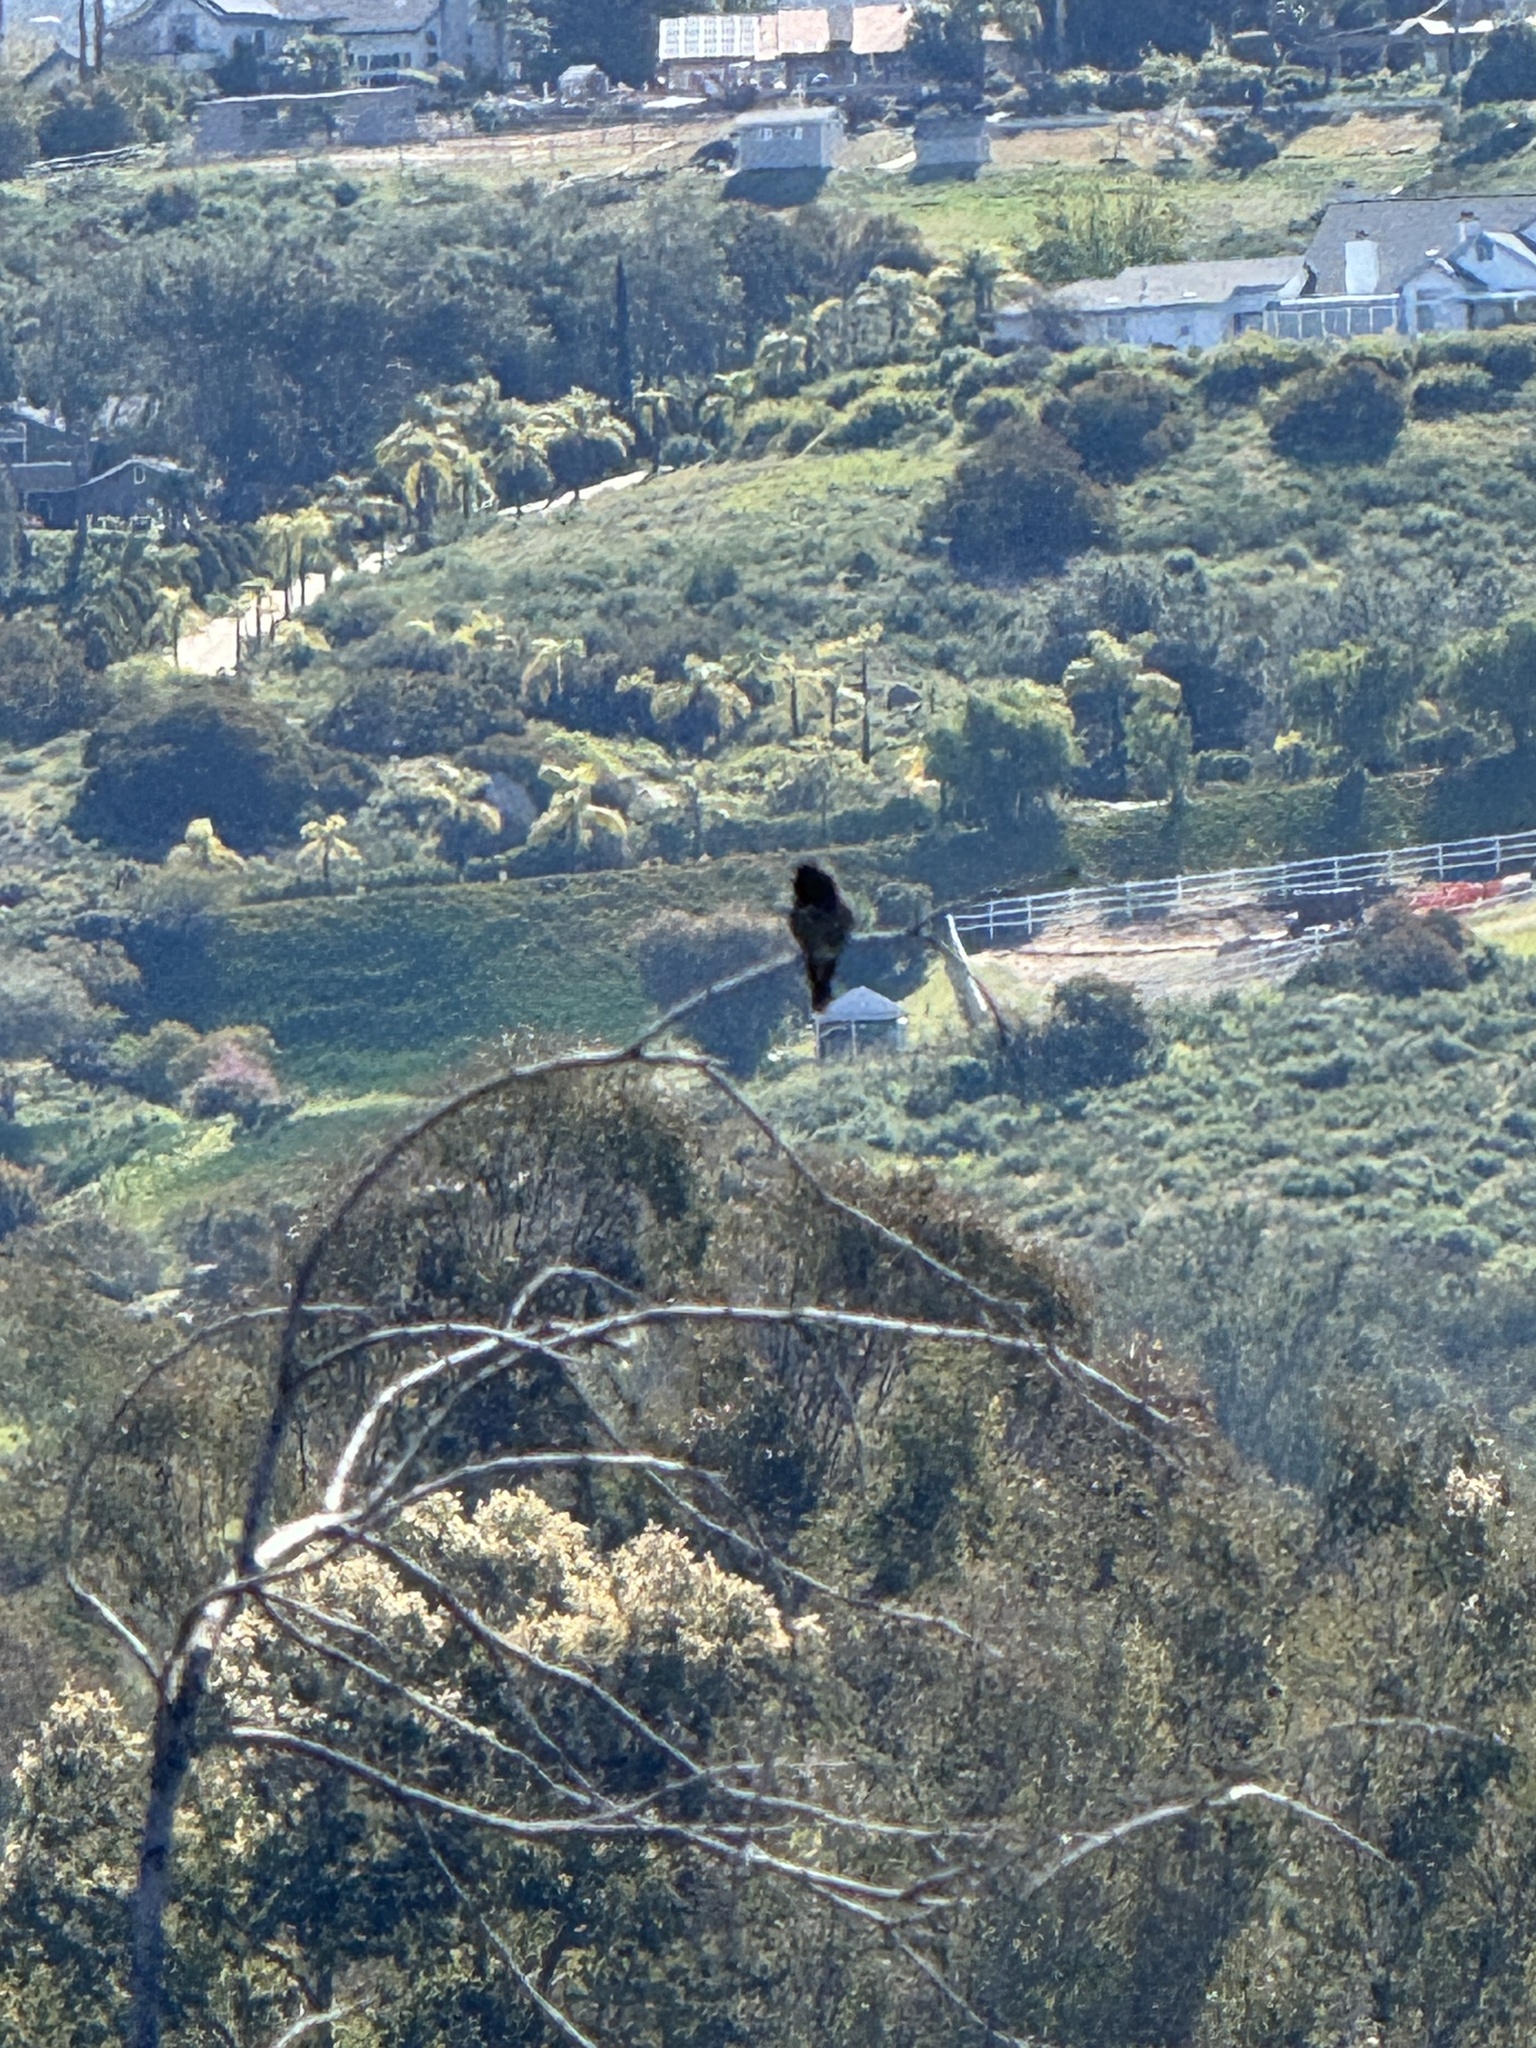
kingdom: Animalia
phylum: Chordata
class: Aves
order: Apodiformes
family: Trochilidae
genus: Calypte
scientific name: Calypte anna
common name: Anna's hummingbird
